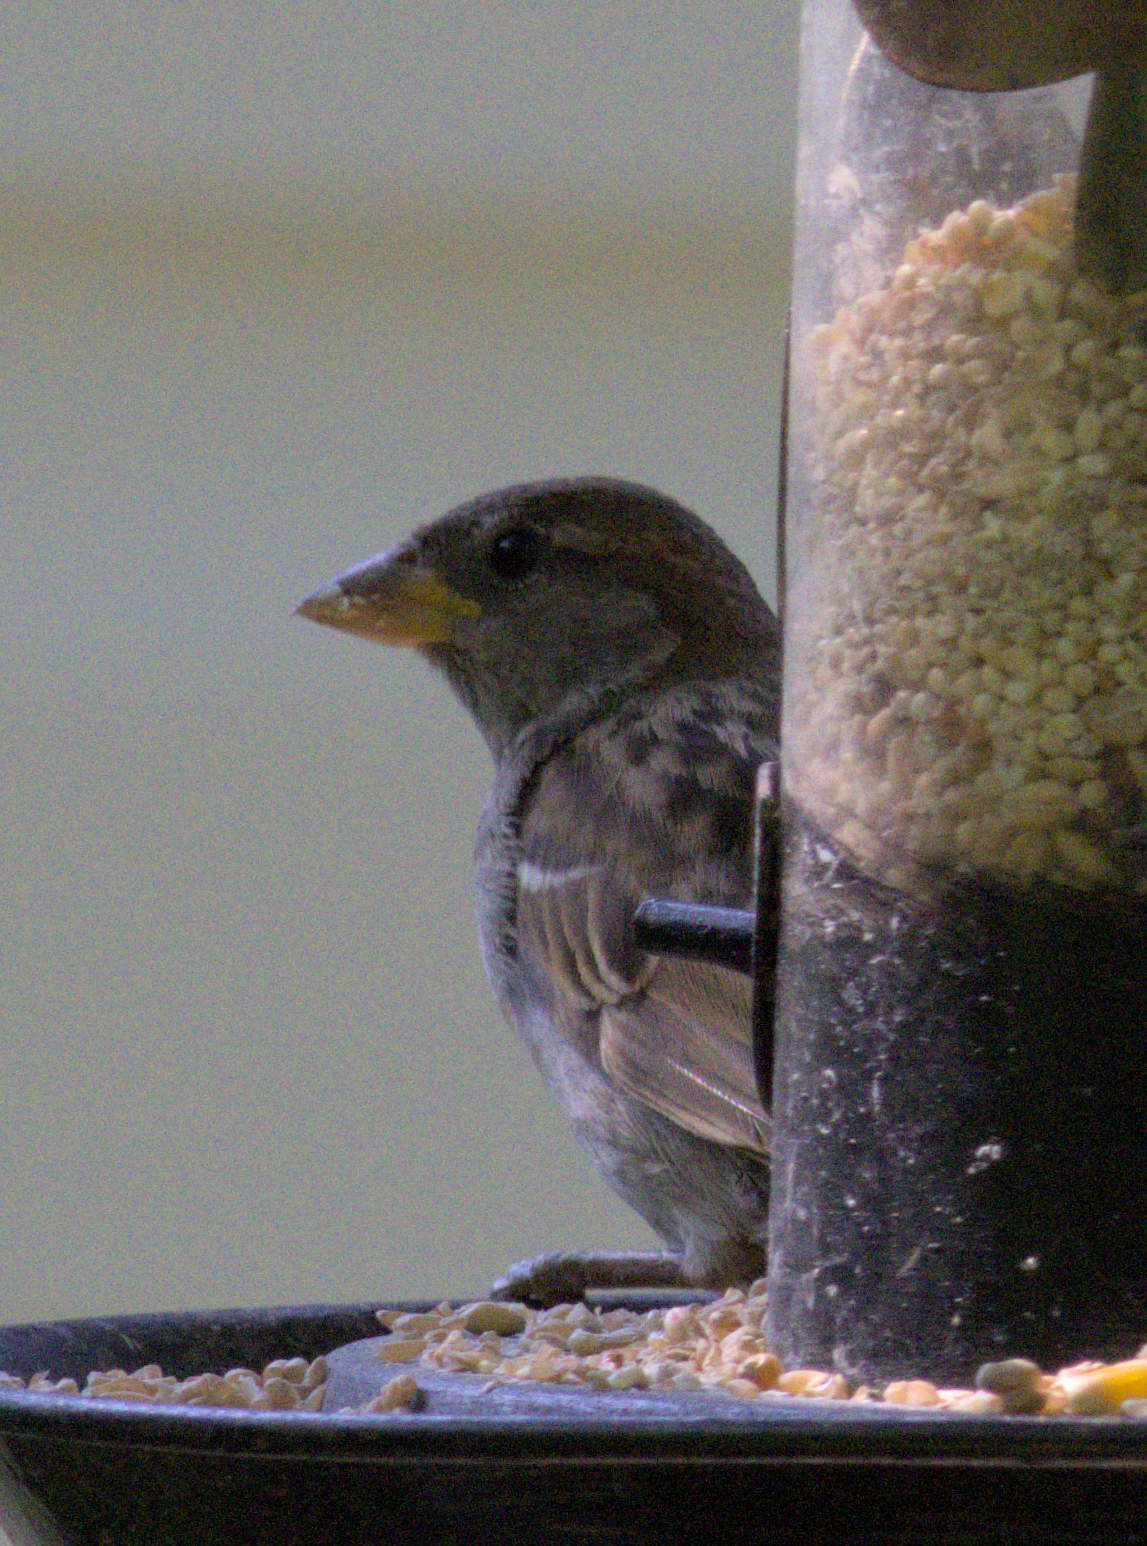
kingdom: Animalia
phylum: Chordata
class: Aves
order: Passeriformes
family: Passeridae
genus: Passer
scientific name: Passer domesticus
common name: House sparrow
